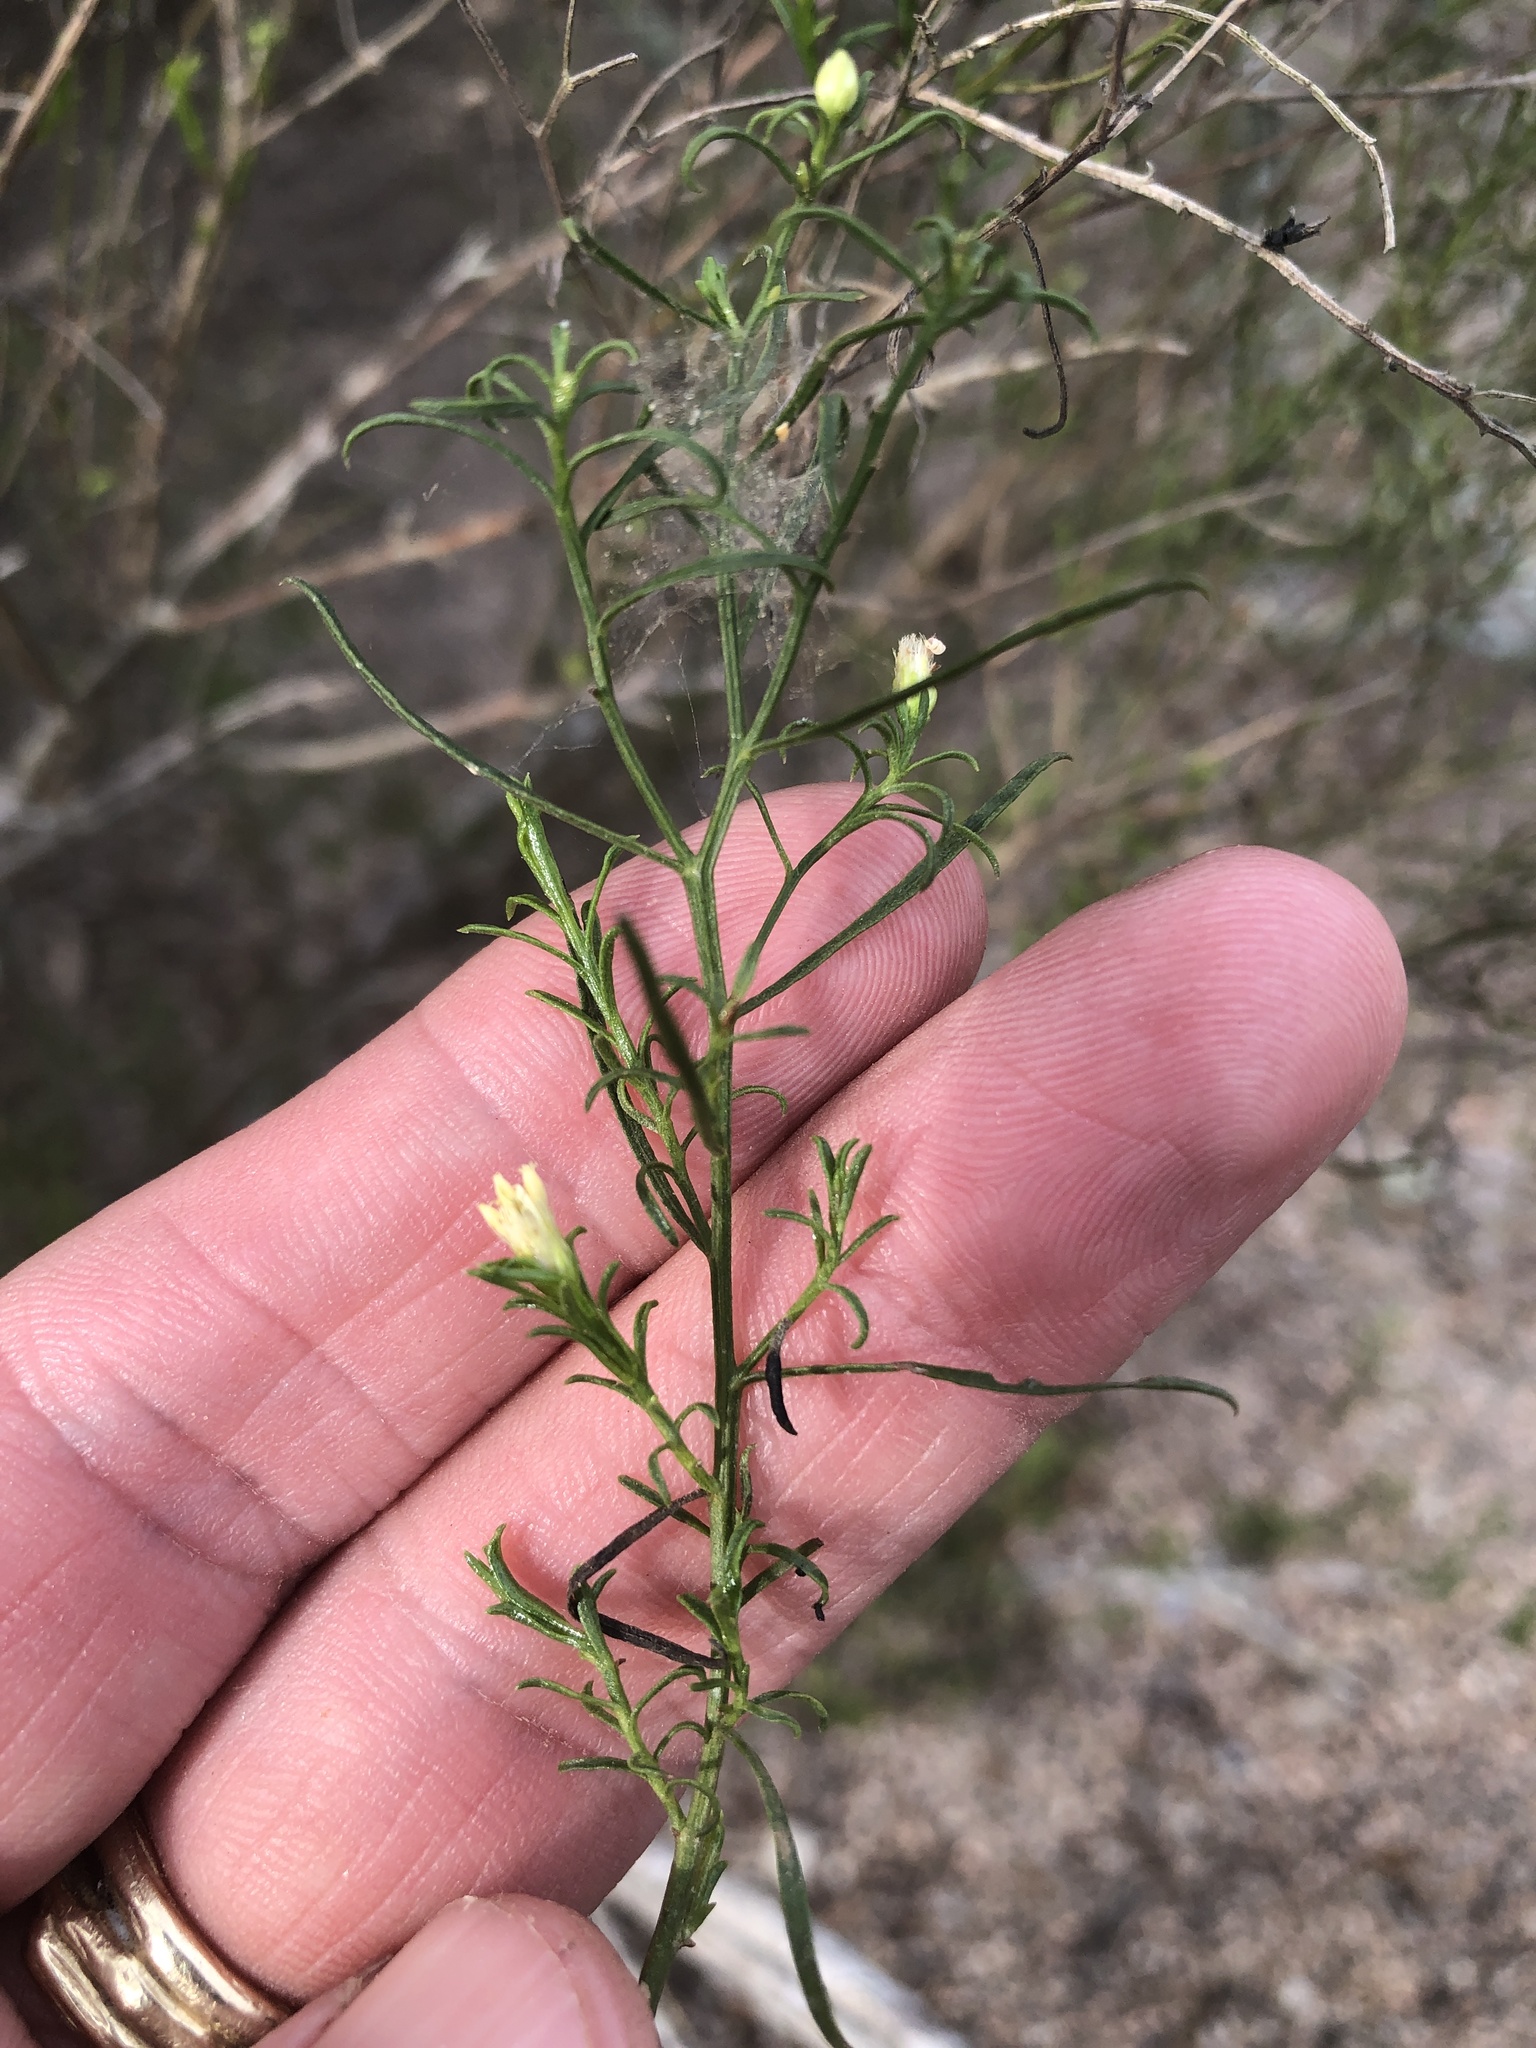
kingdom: Plantae
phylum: Tracheophyta
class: Magnoliopsida
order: Asterales
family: Asteraceae
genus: Medranoa
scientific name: Medranoa palmeri
